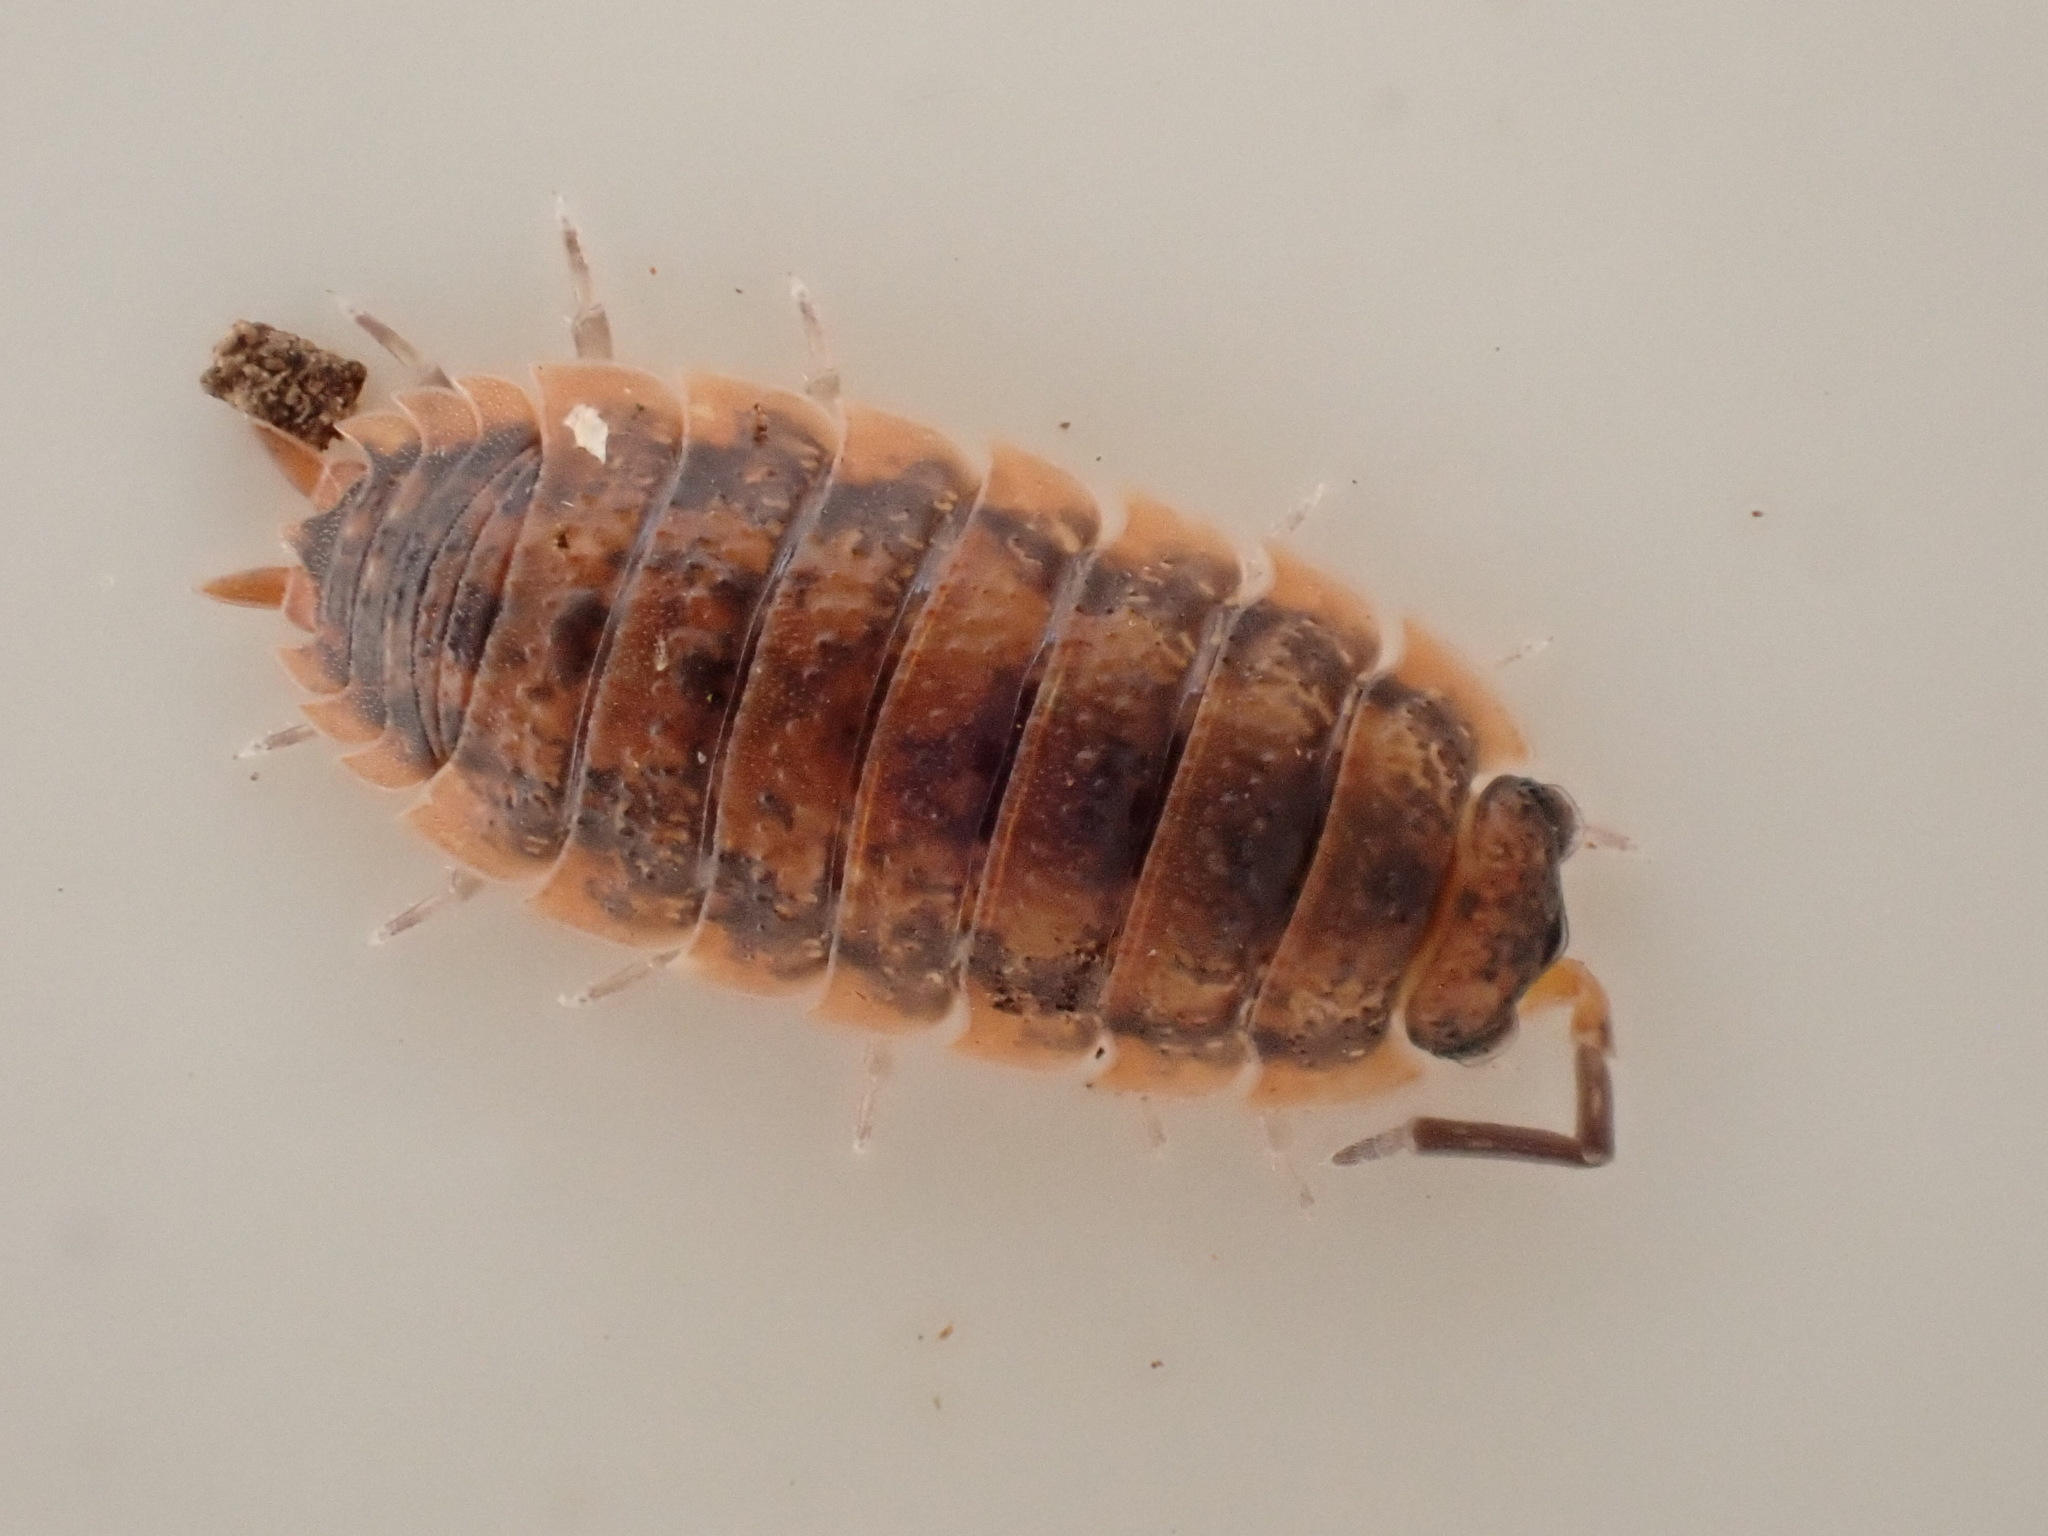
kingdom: Animalia
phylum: Arthropoda
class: Malacostraca
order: Isopoda
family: Porcellionidae
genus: Porcellio
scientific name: Porcellio scaber
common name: Common rough woodlouse
